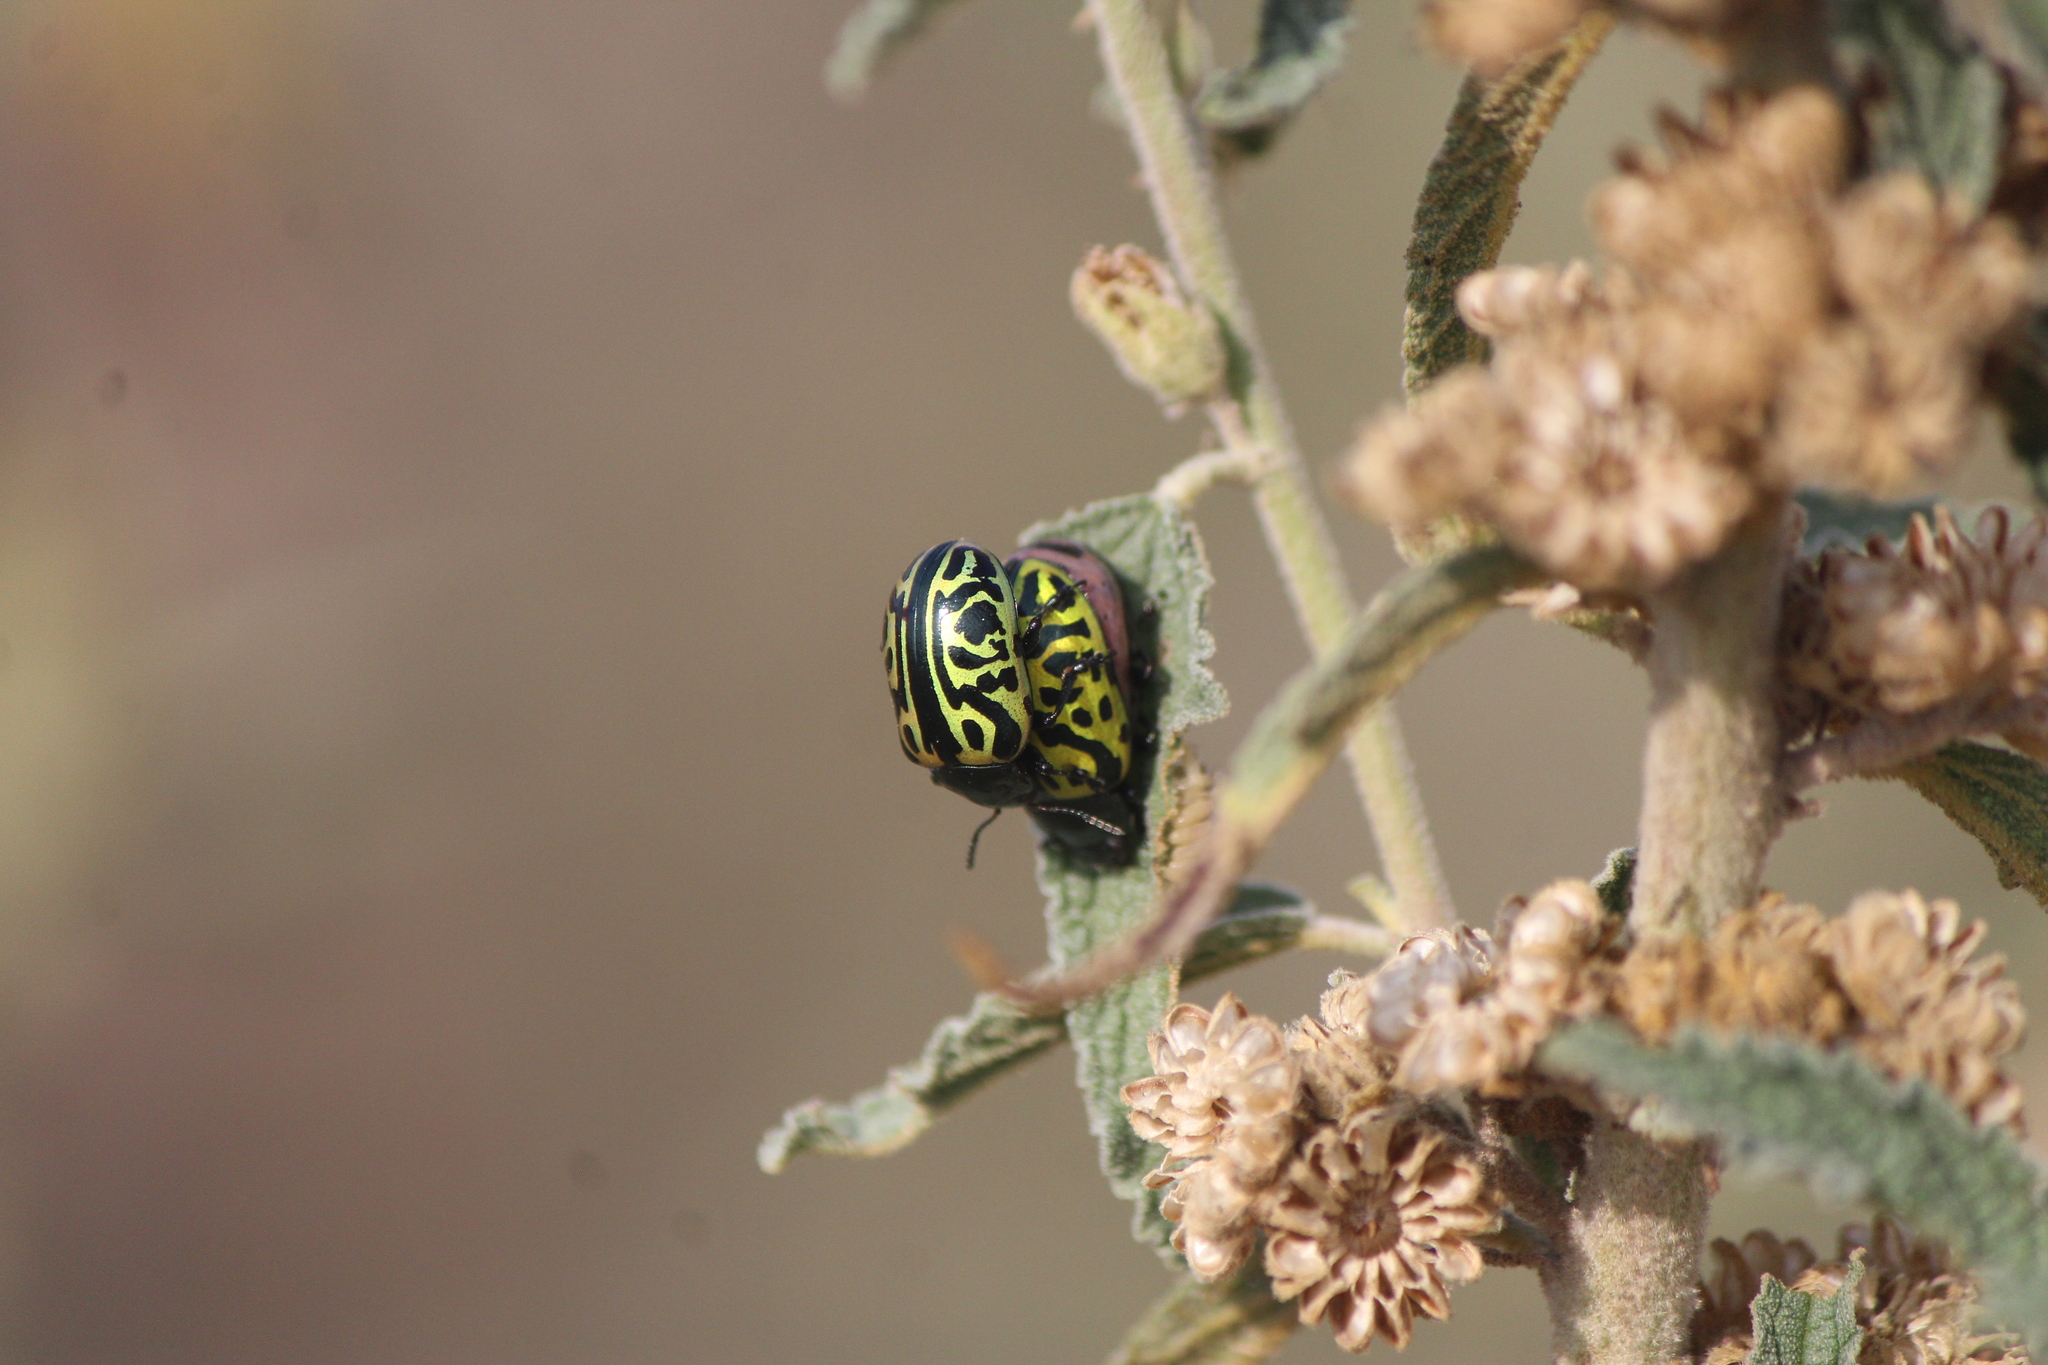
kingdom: Animalia
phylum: Arthropoda
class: Insecta
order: Coleoptera
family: Chrysomelidae
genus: Calligrapha
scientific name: Calligrapha mexicana
